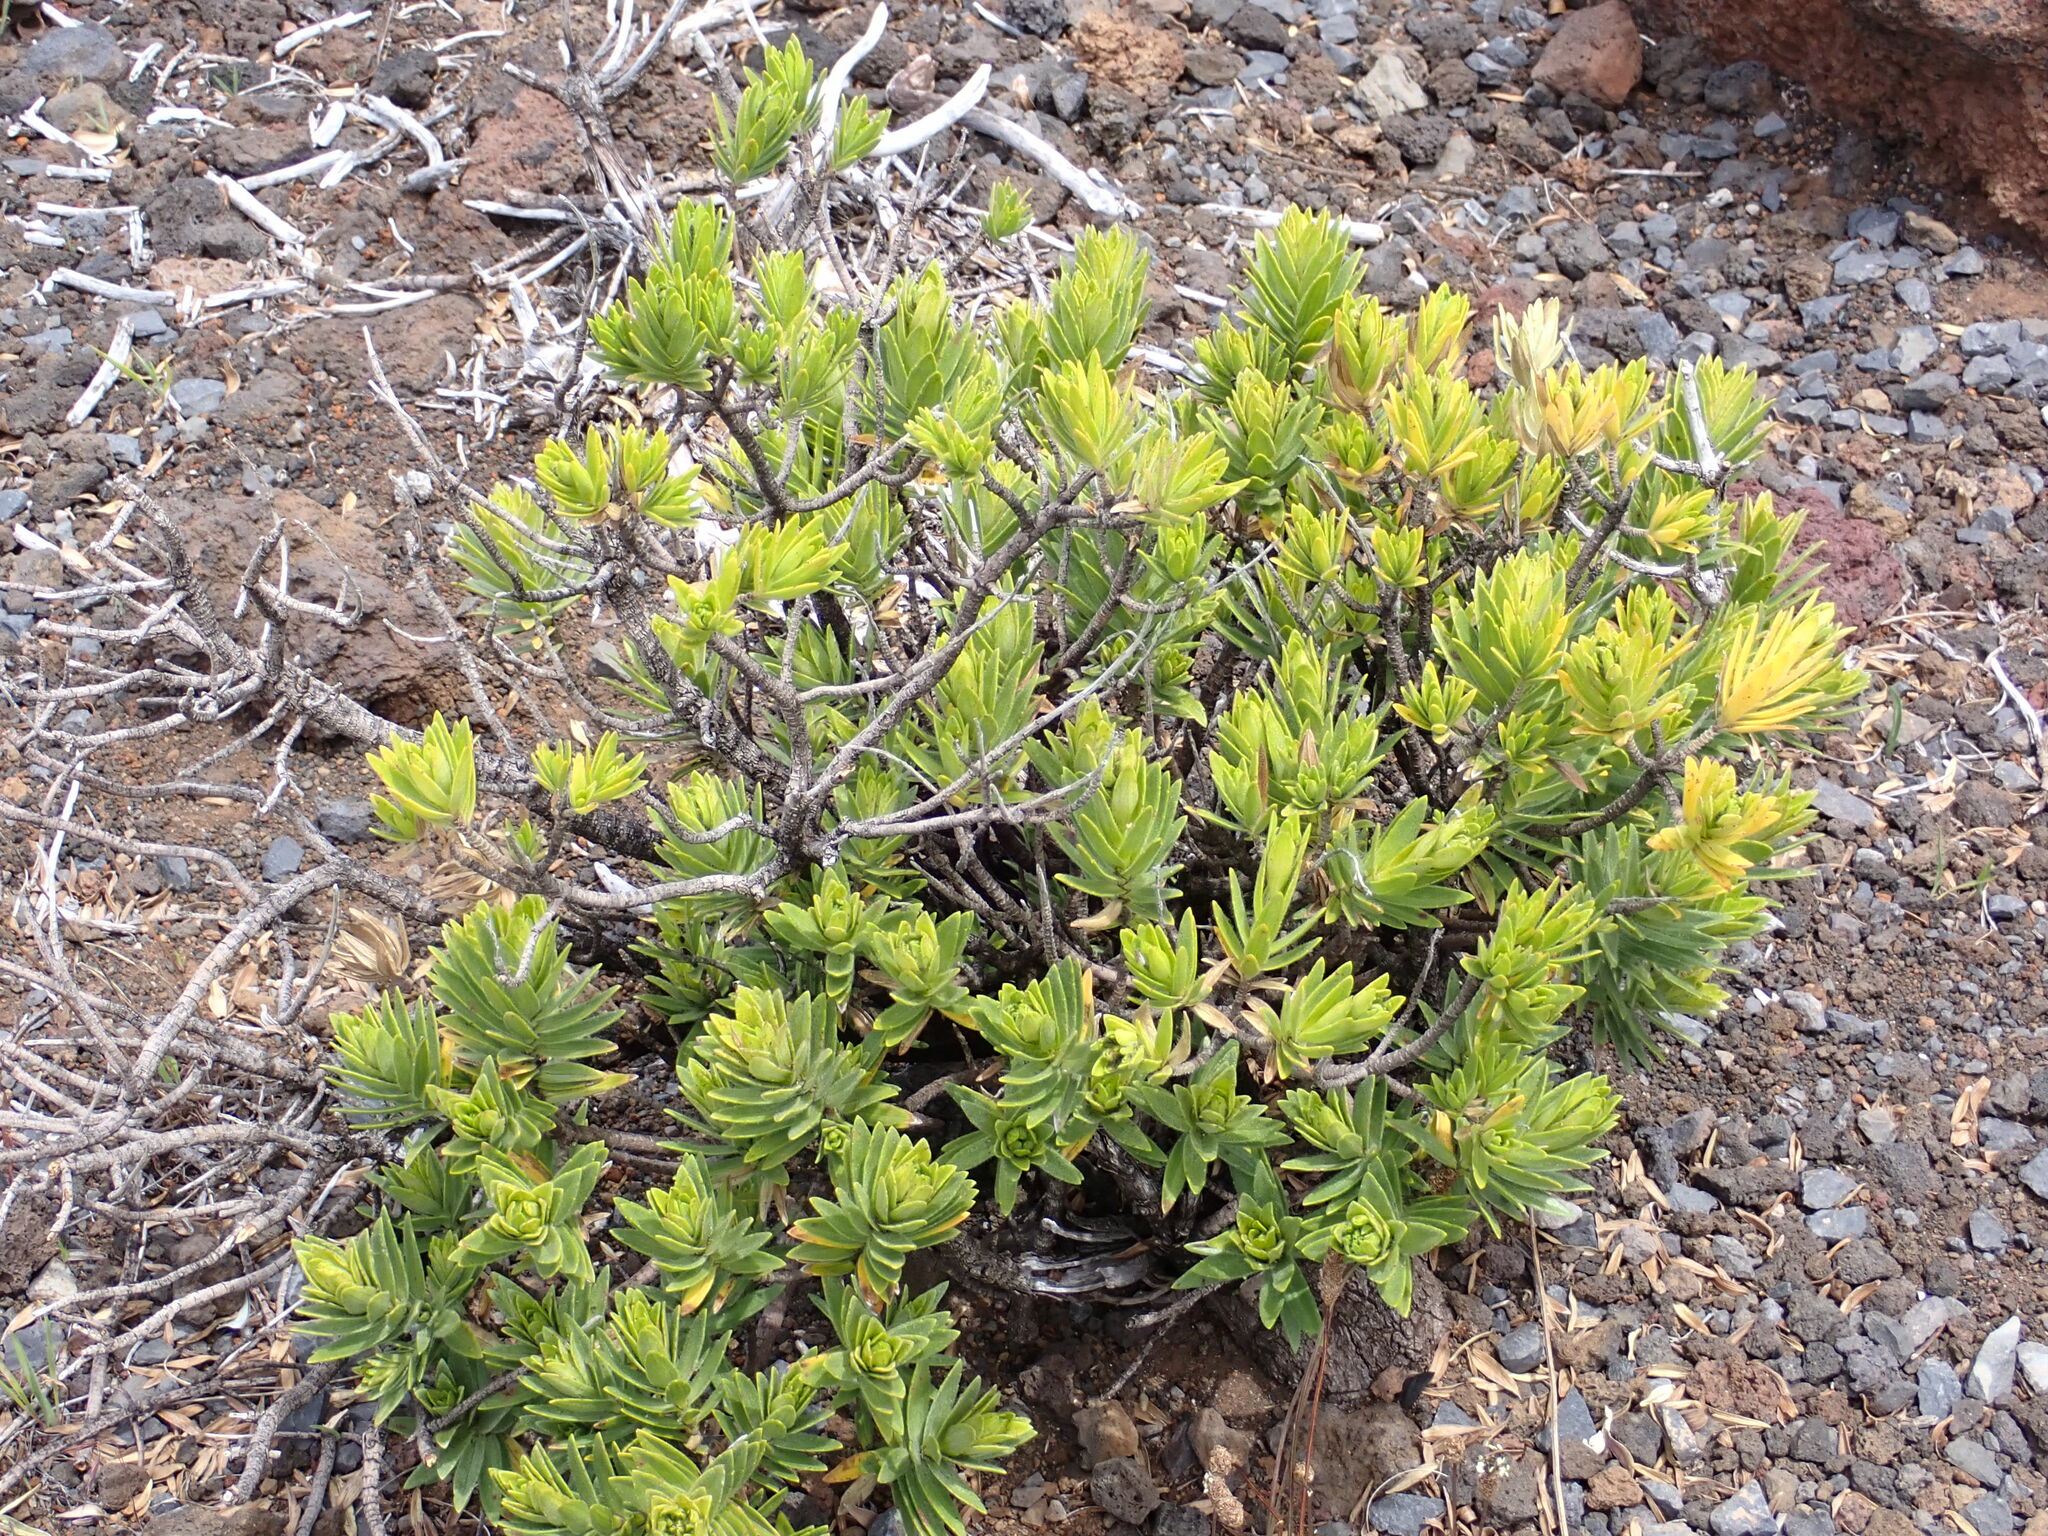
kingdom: Plantae
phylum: Tracheophyta
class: Magnoliopsida
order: Asterales
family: Asteraceae
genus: Dubautia
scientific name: Dubautia menziesii
